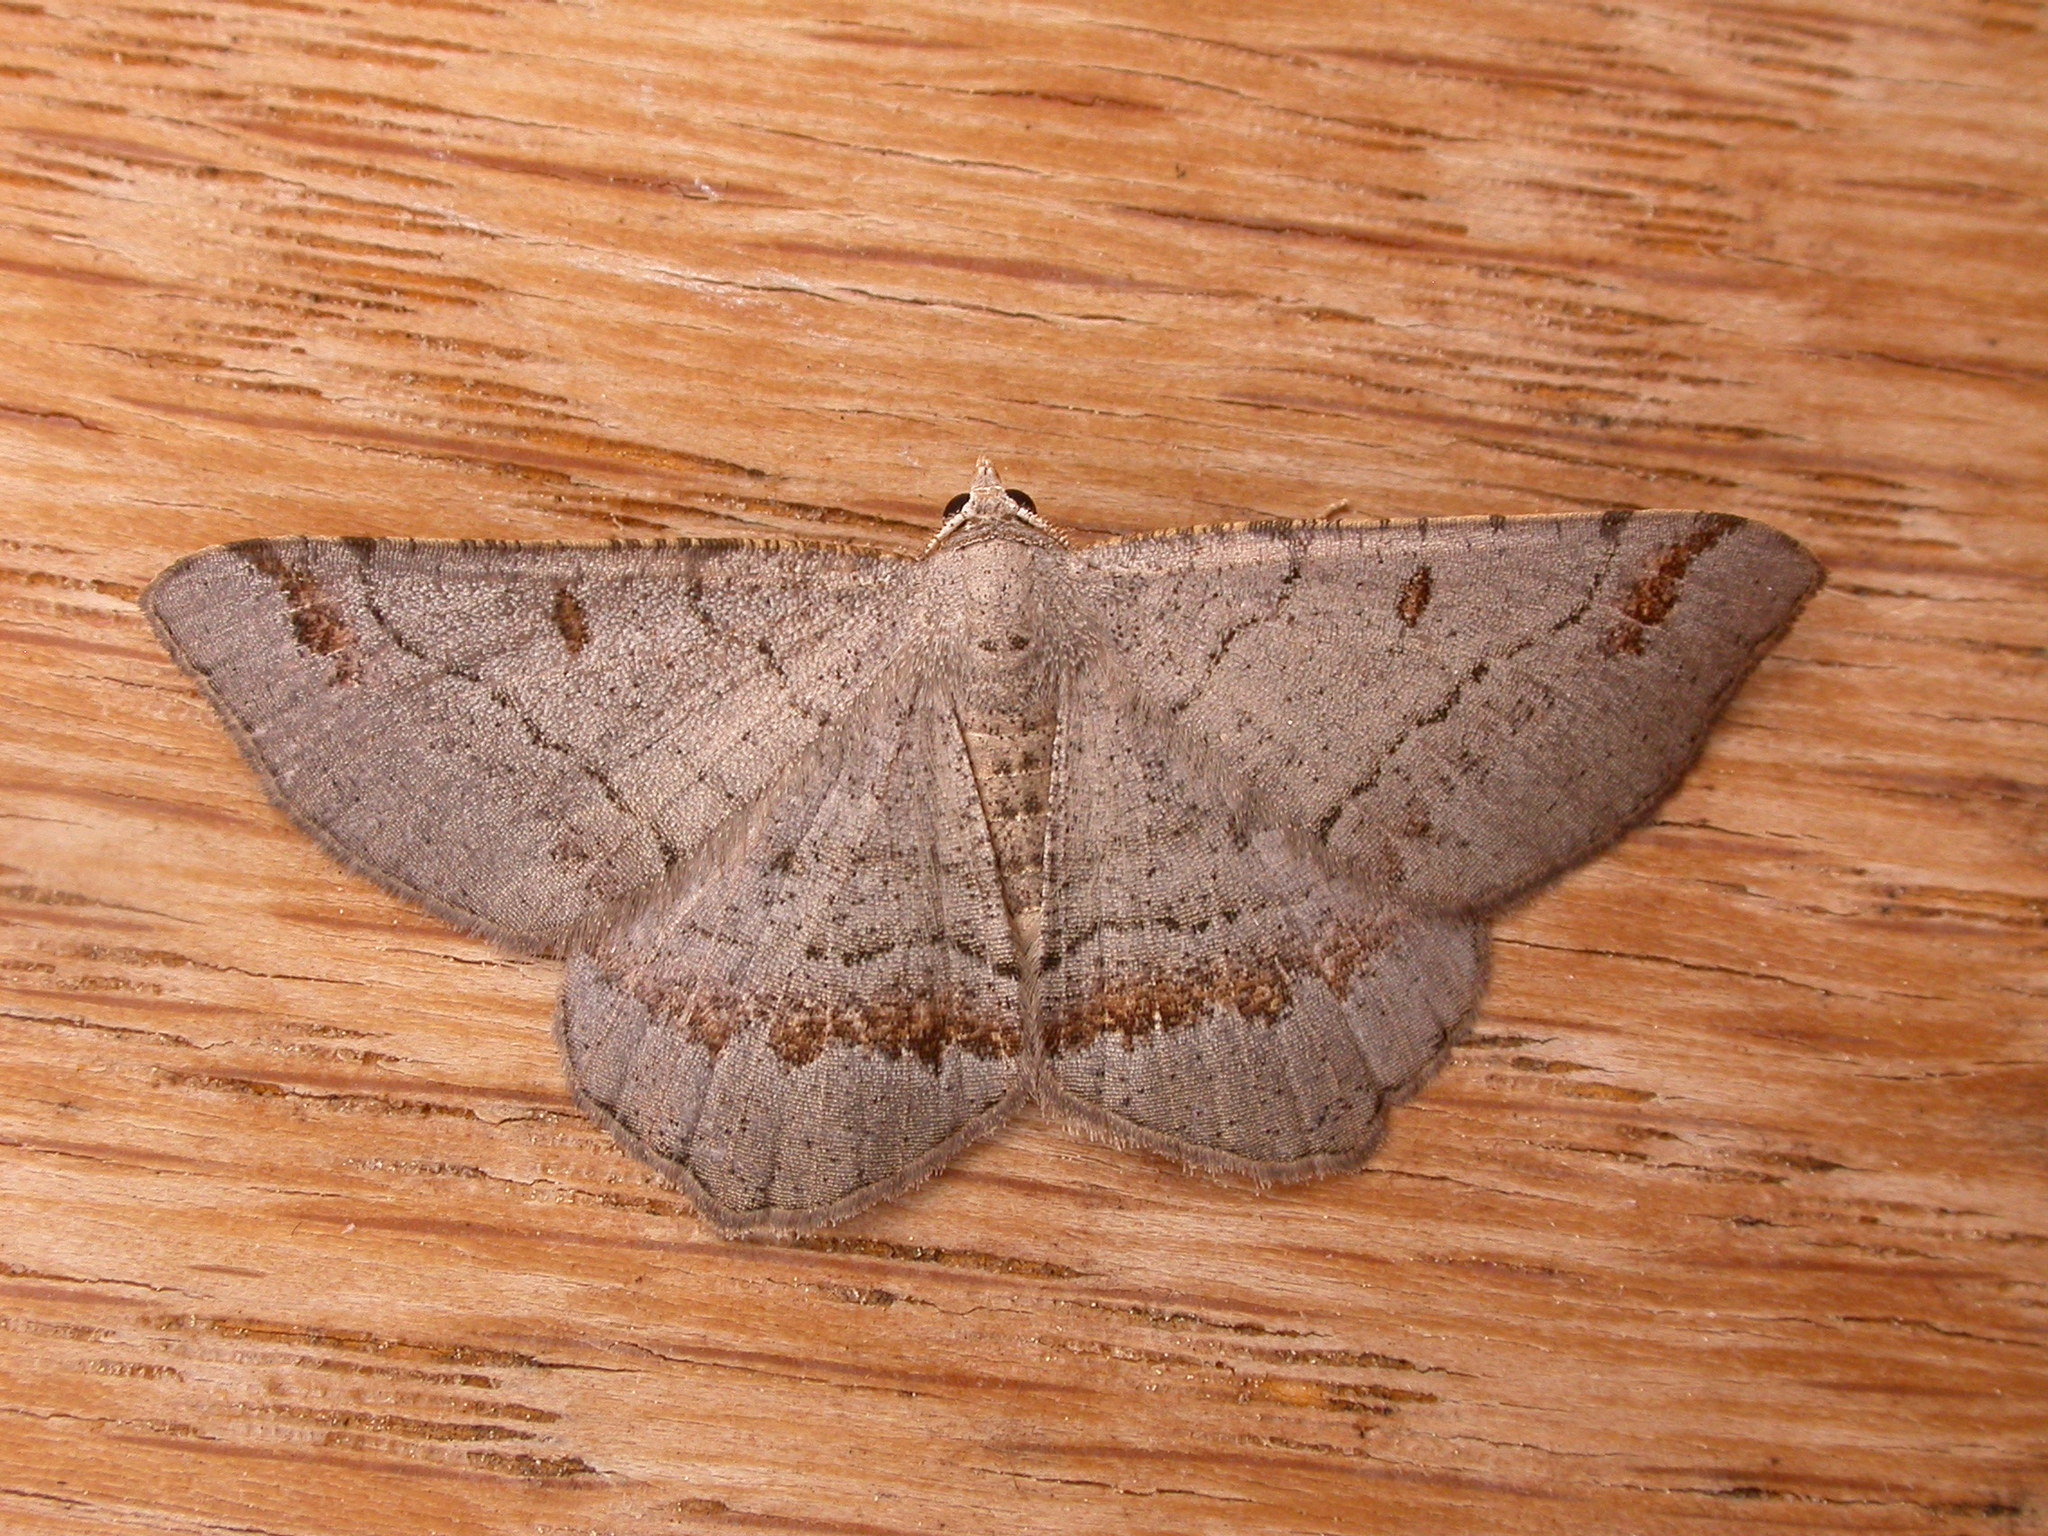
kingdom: Animalia
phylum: Arthropoda
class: Insecta
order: Lepidoptera
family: Geometridae
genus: Dissomorphia
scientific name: Dissomorphia australiaria
